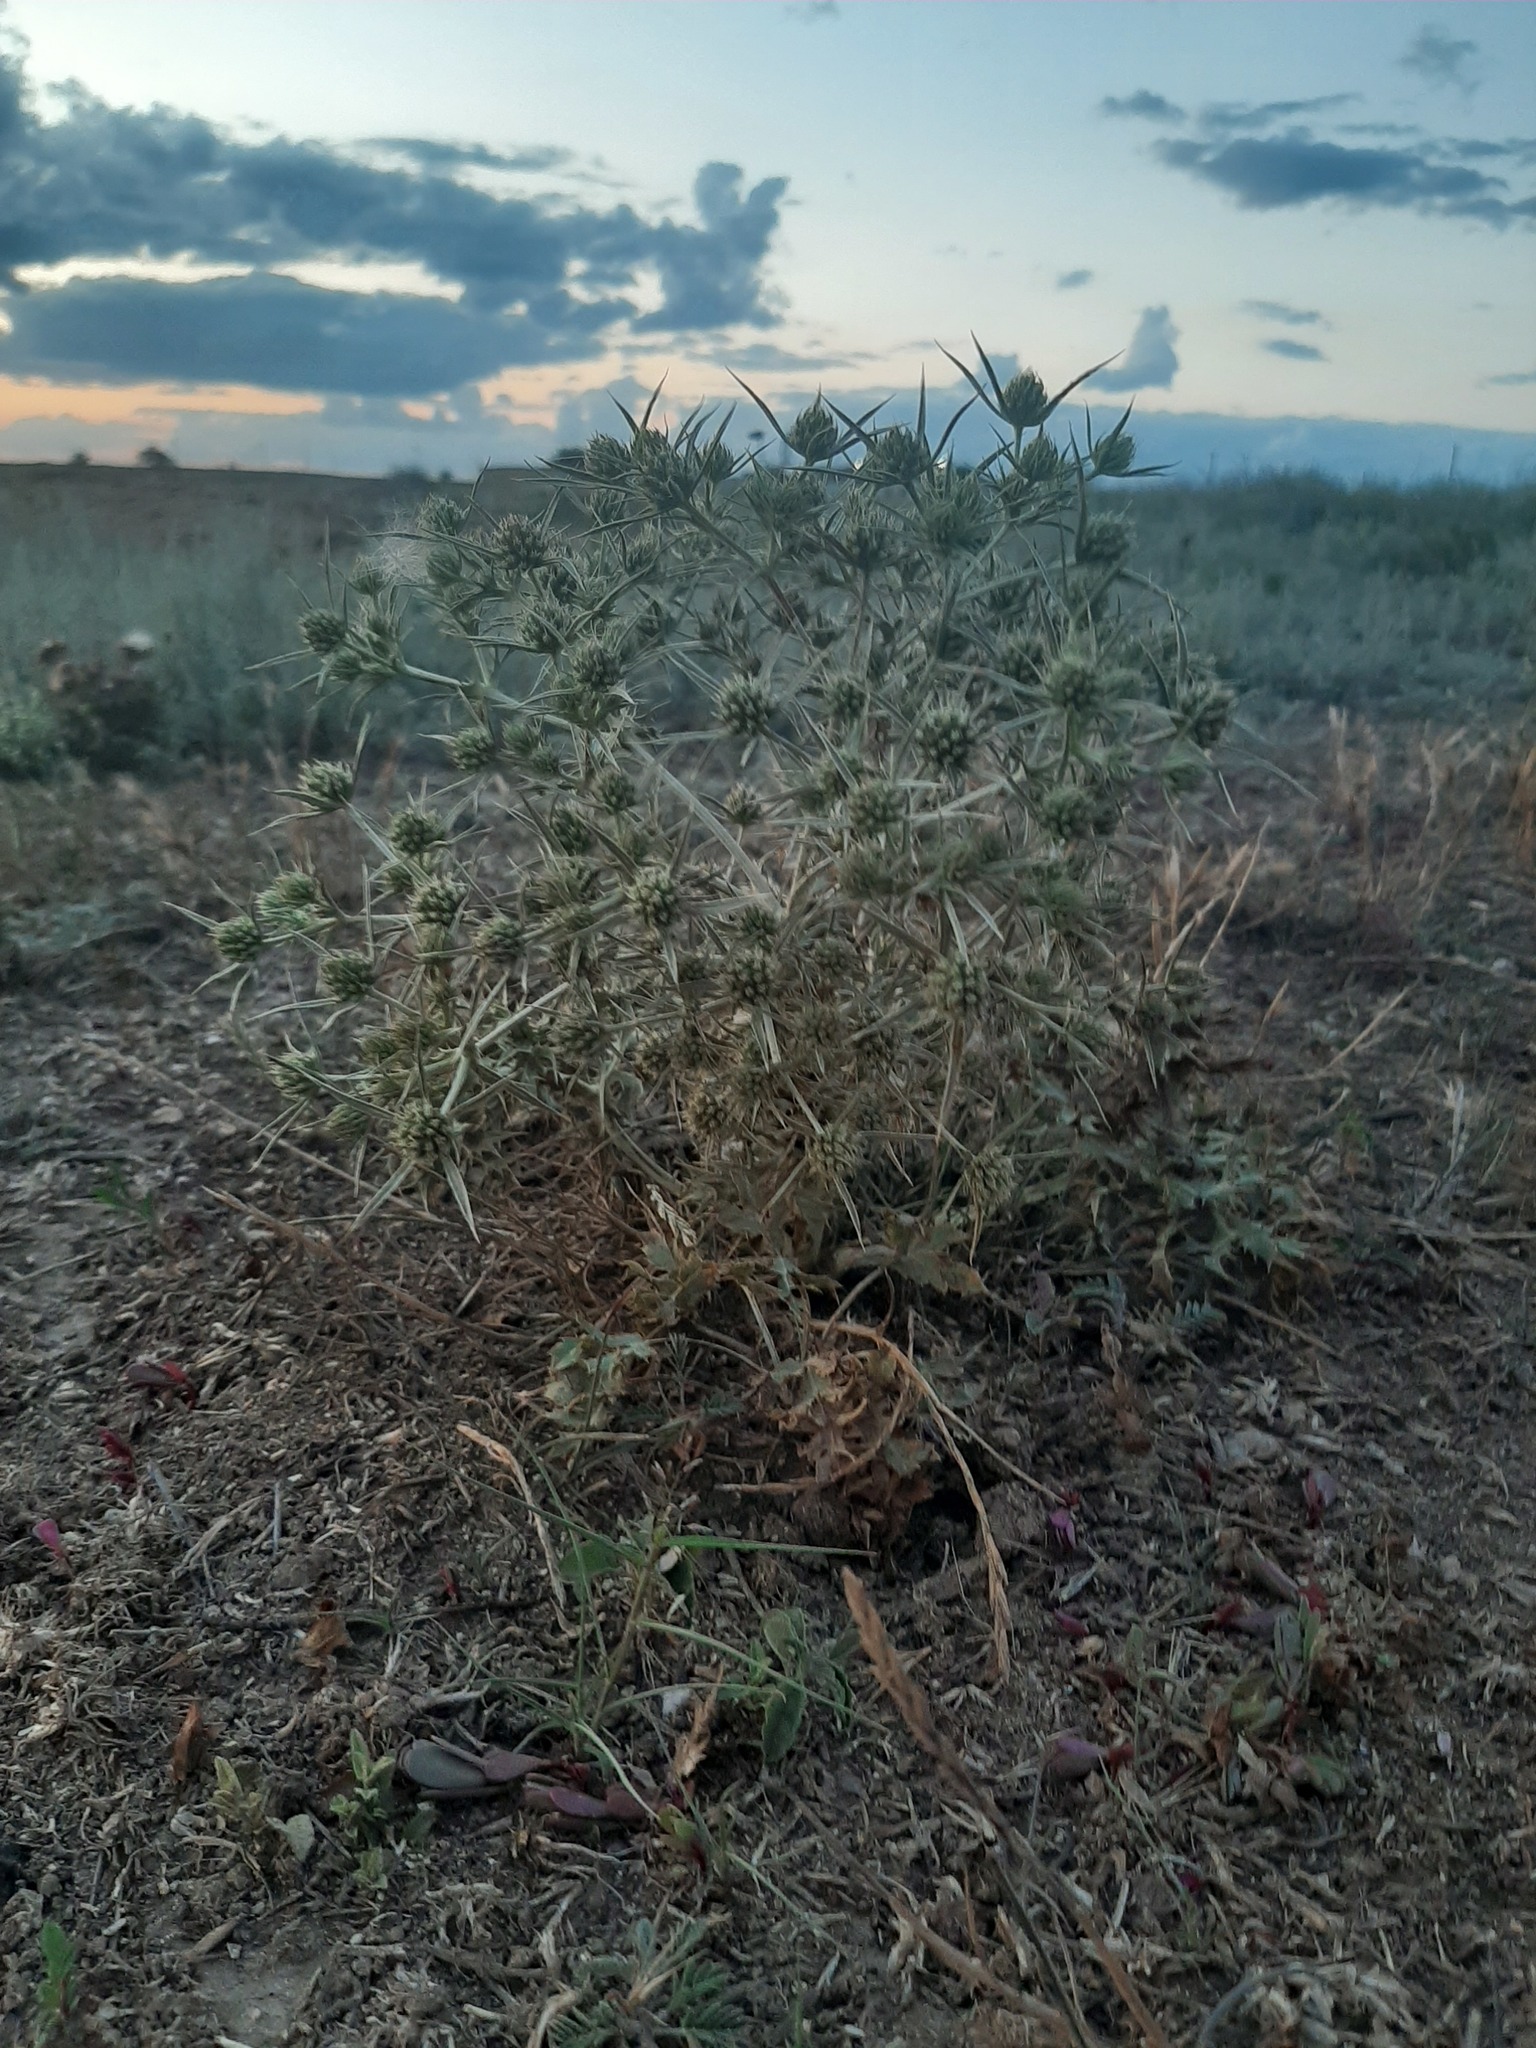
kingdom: Plantae
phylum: Tracheophyta
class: Magnoliopsida
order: Apiales
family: Apiaceae
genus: Eryngium
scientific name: Eryngium campestre
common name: Field eryngo
